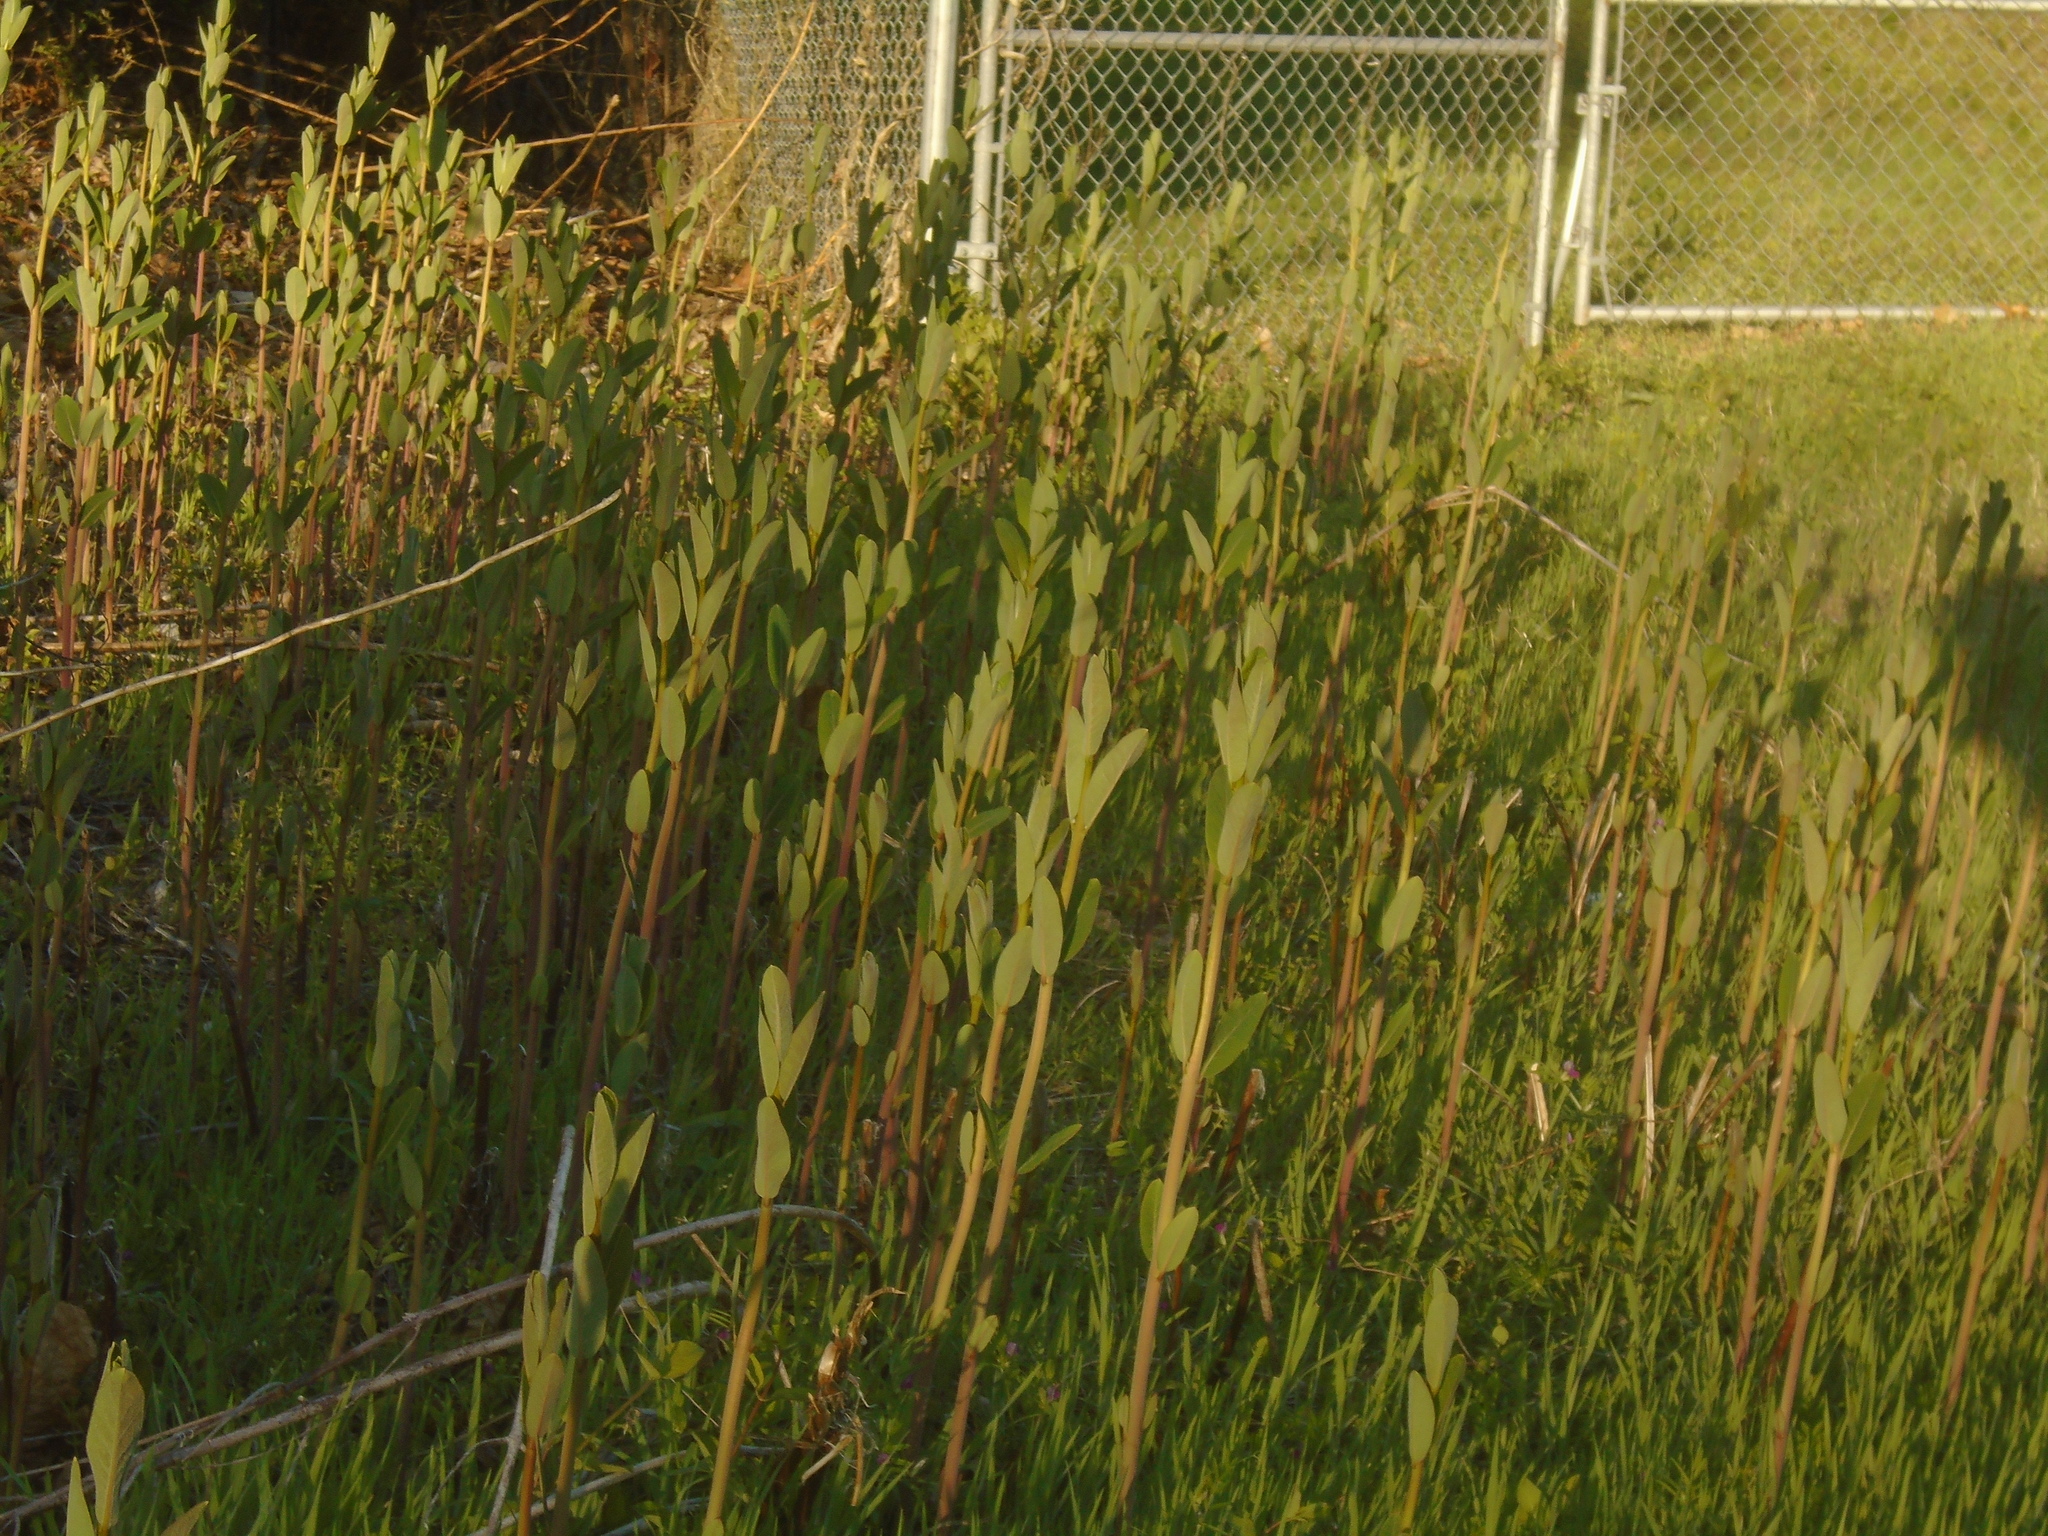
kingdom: Plantae
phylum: Tracheophyta
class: Magnoliopsida
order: Gentianales
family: Apocynaceae
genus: Apocynum
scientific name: Apocynum cannabinum
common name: Hemp dogbane
